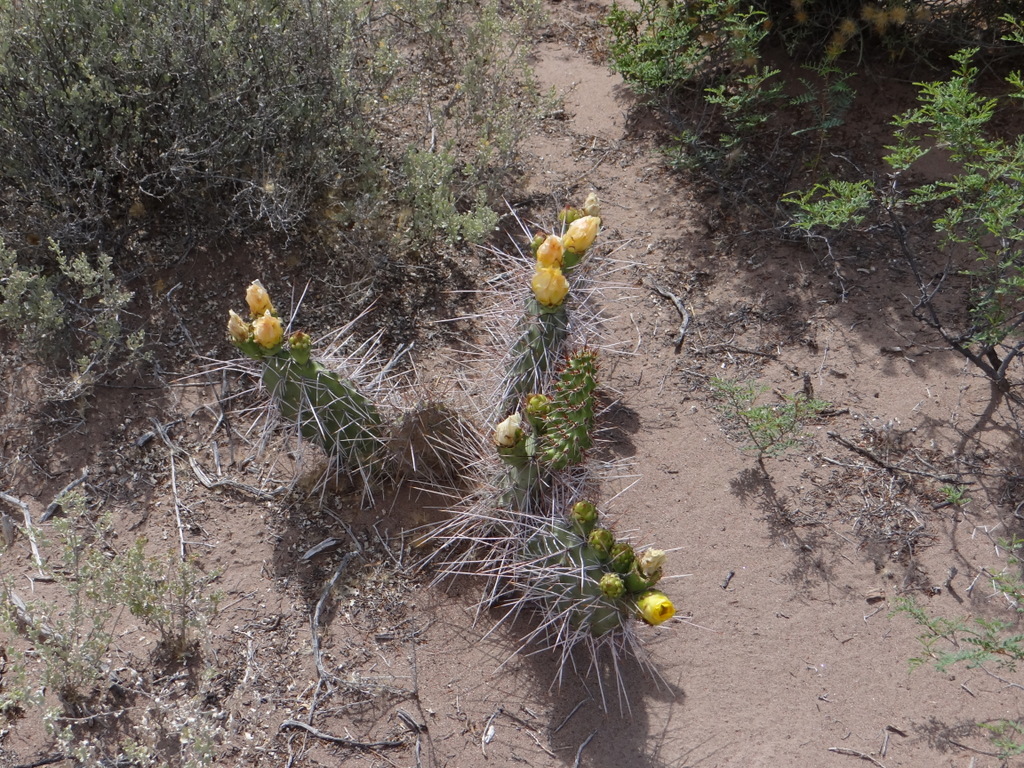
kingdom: Plantae
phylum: Tracheophyta
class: Magnoliopsida
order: Caryophyllales
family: Cactaceae
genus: Opuntia
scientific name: Opuntia sulphurea
